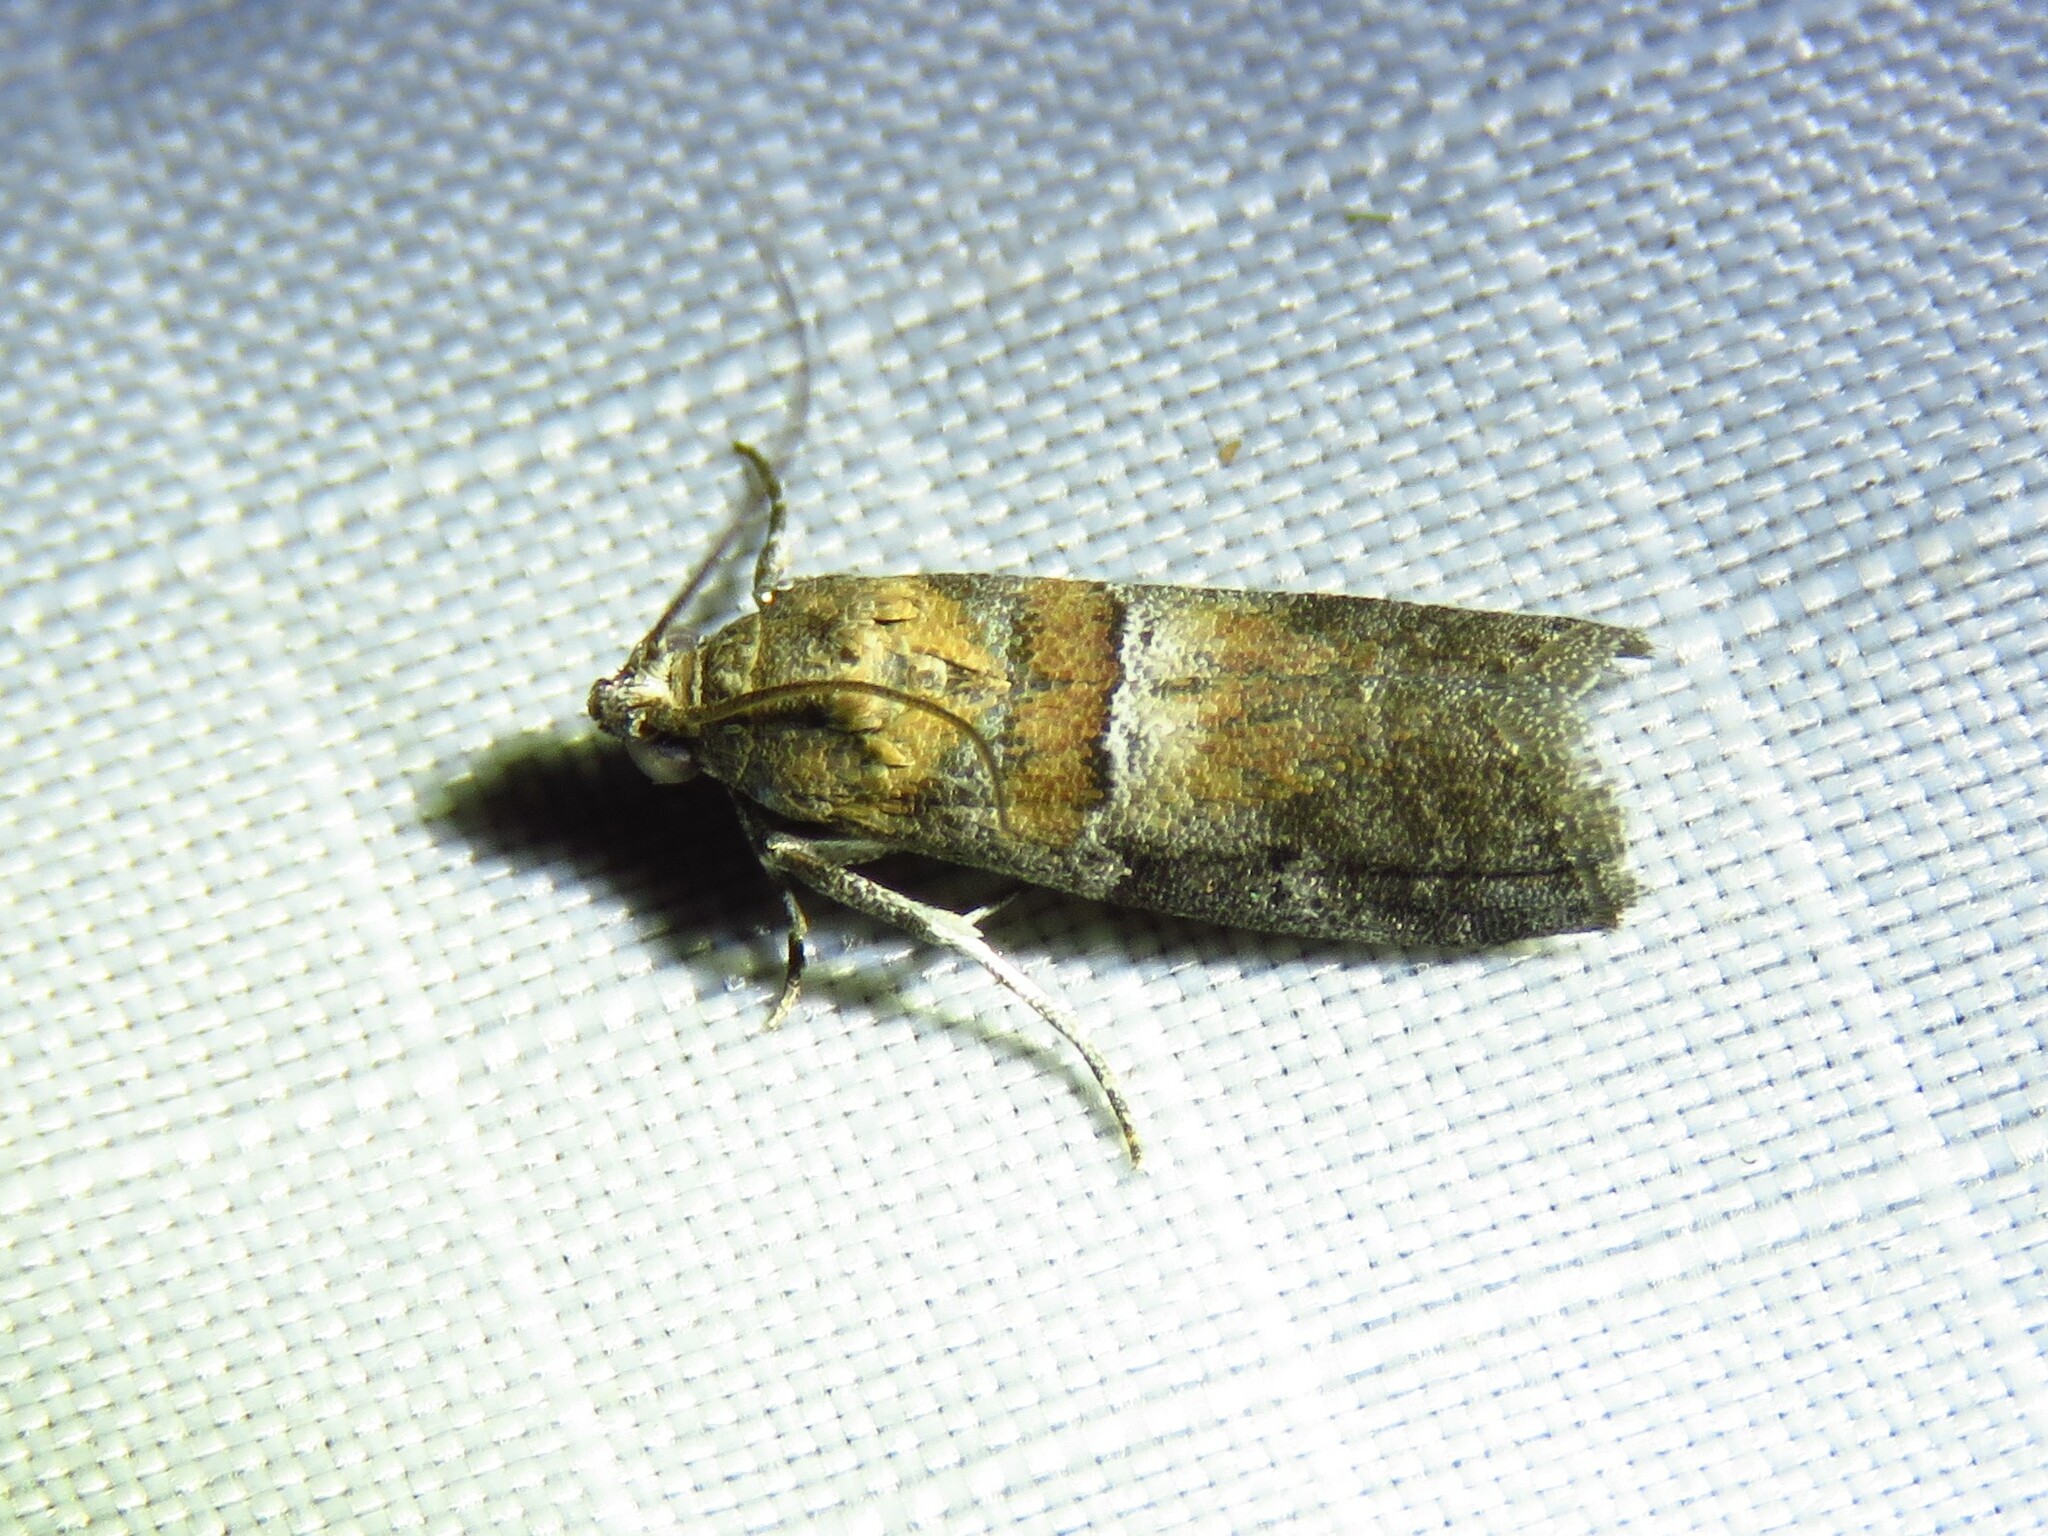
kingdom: Animalia
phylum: Arthropoda
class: Insecta
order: Lepidoptera
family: Pyralidae
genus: Salebriaria
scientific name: Salebriaria pumilella
